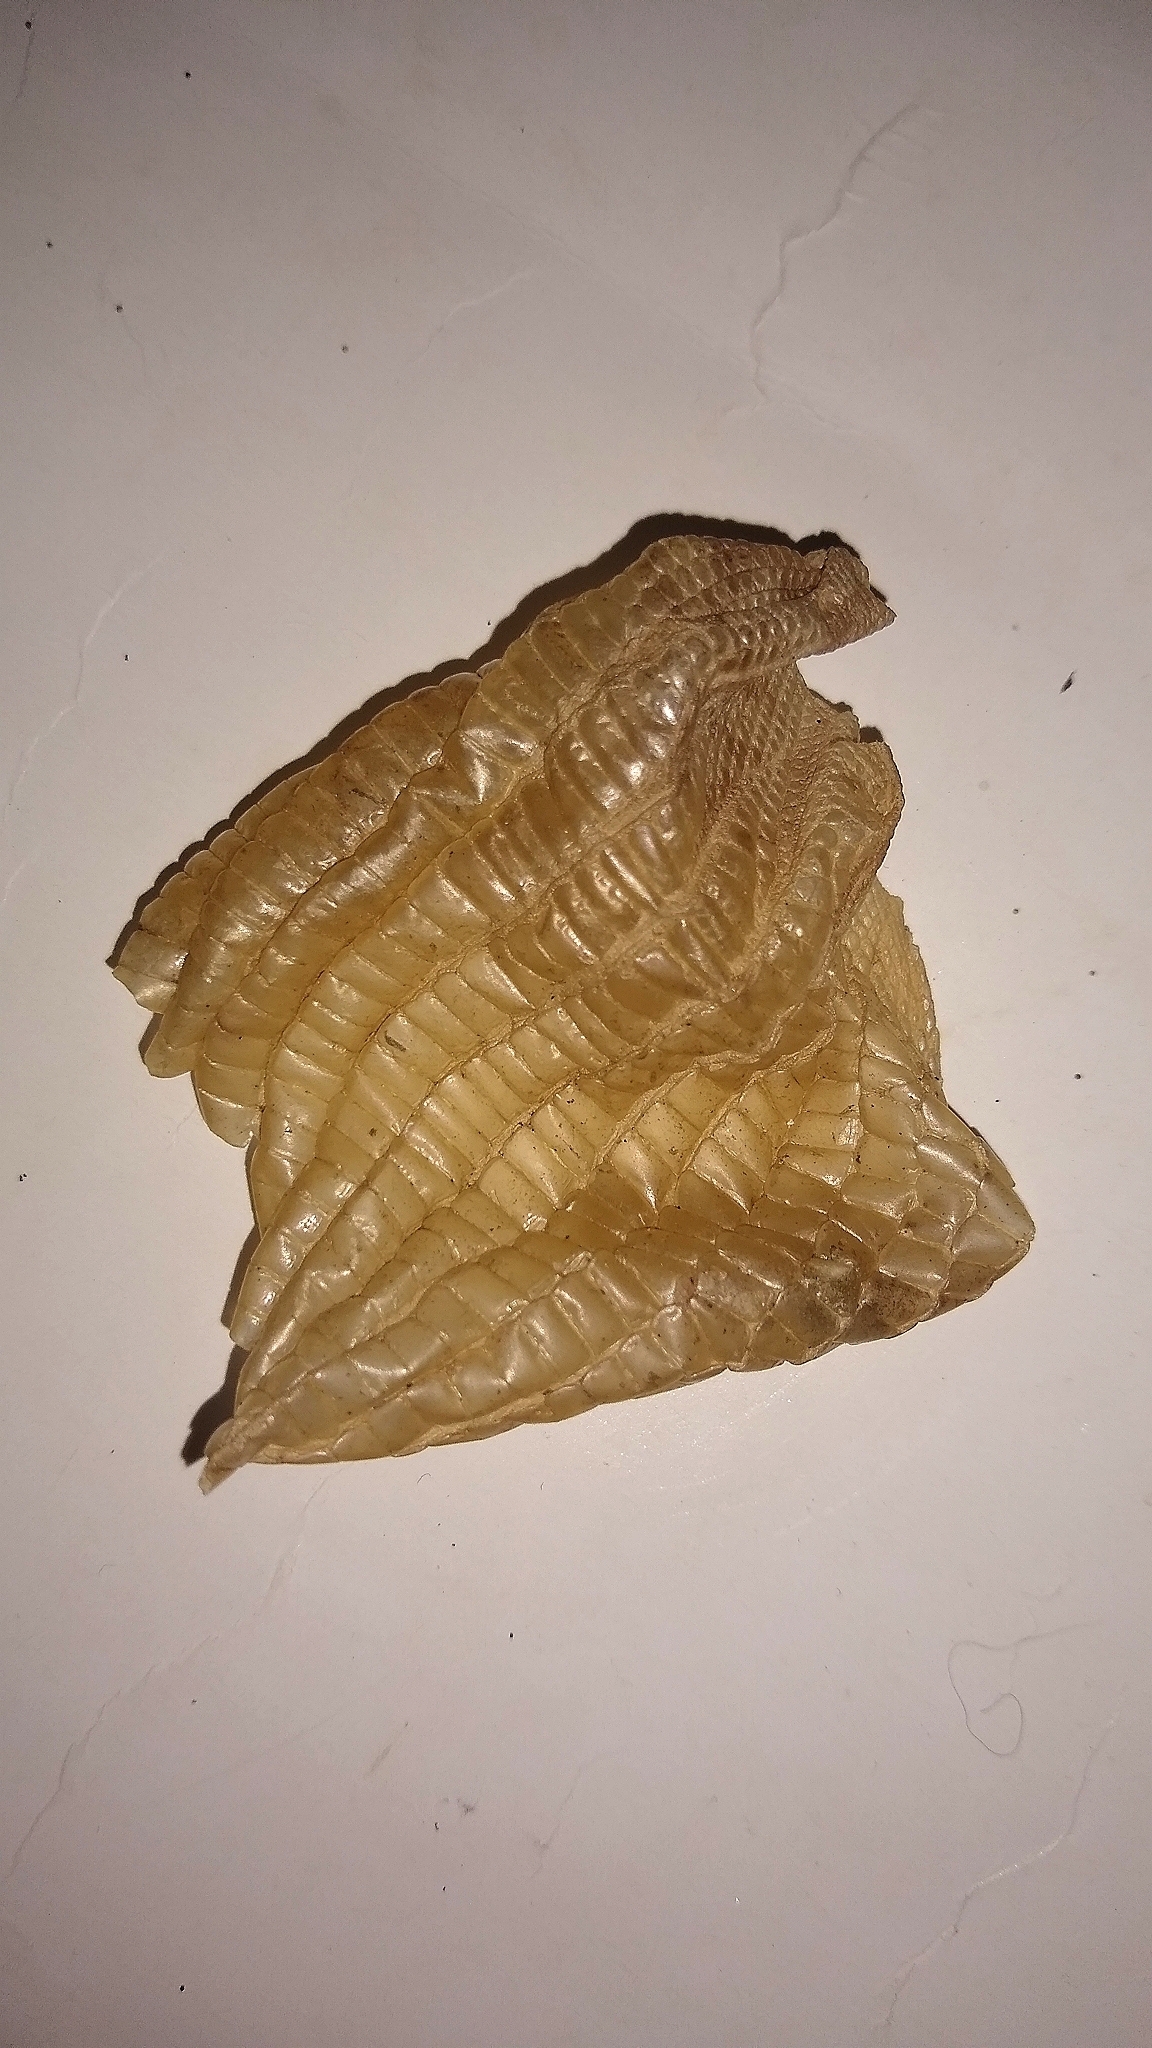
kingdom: Animalia
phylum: Chordata
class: Squamata
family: Teiidae
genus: Salvator
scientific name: Salvator merianae
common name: Argentine black and white tegu
